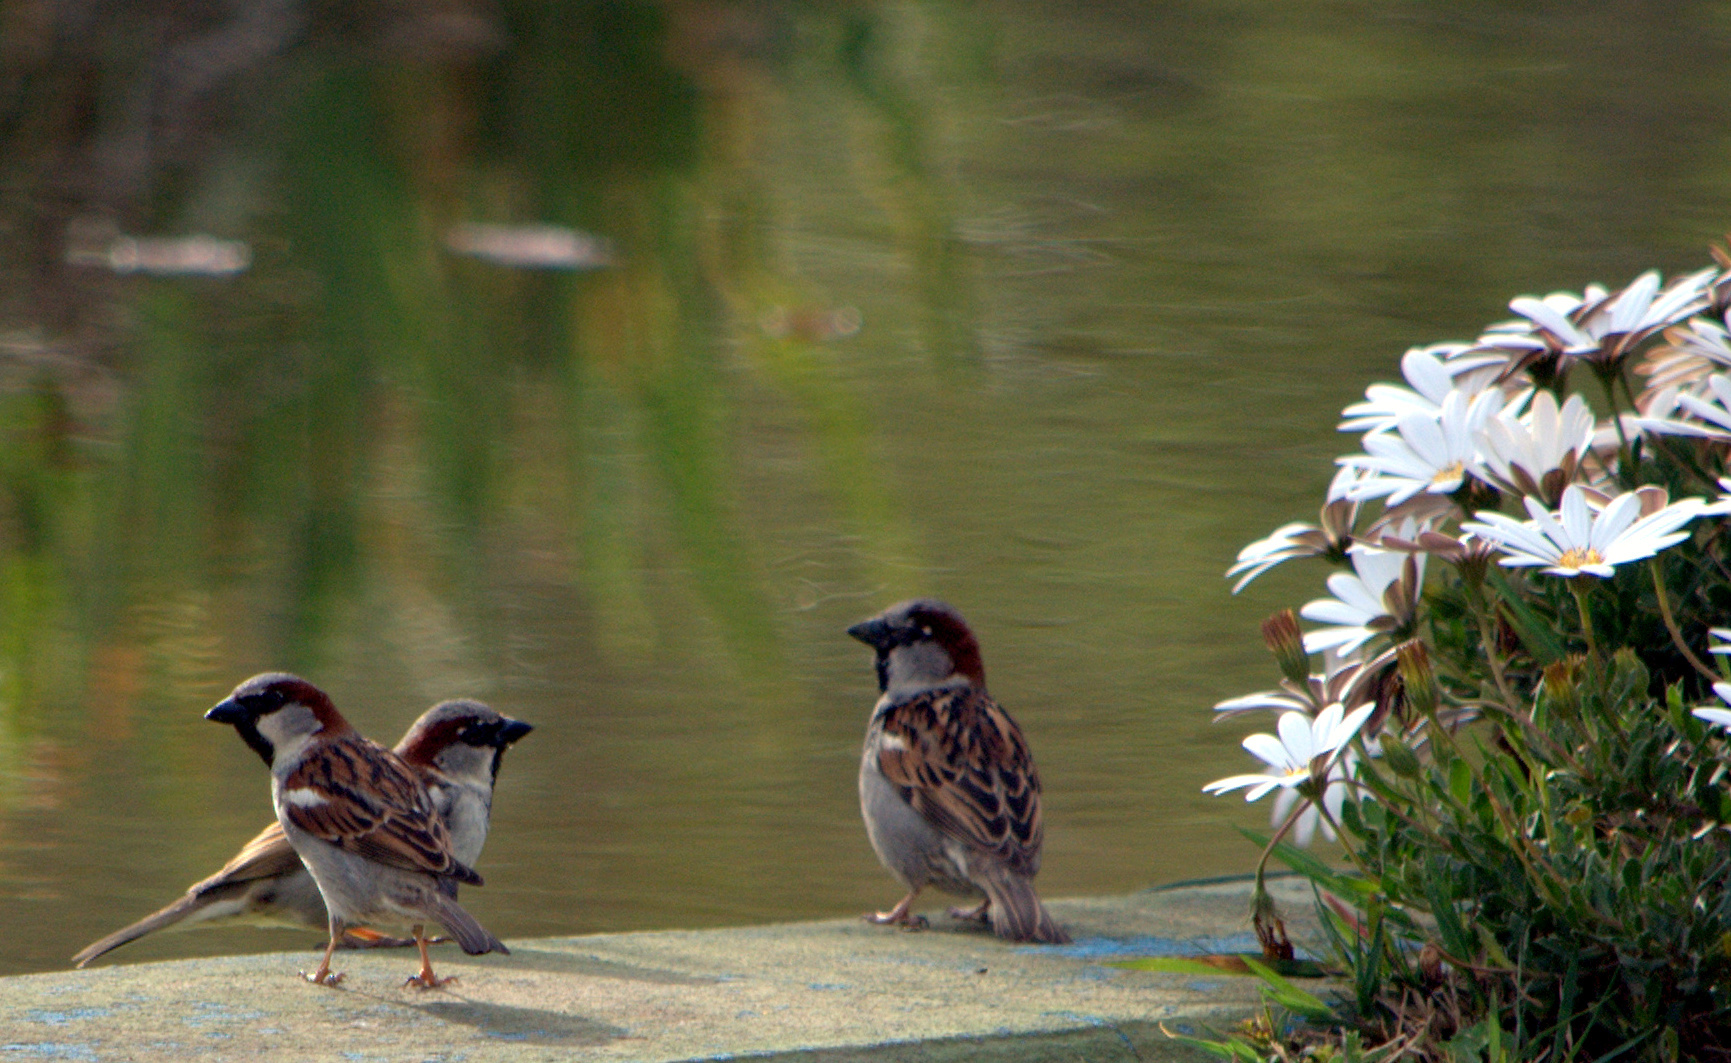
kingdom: Animalia
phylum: Chordata
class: Aves
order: Passeriformes
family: Passeridae
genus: Passer
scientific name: Passer domesticus
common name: House sparrow
